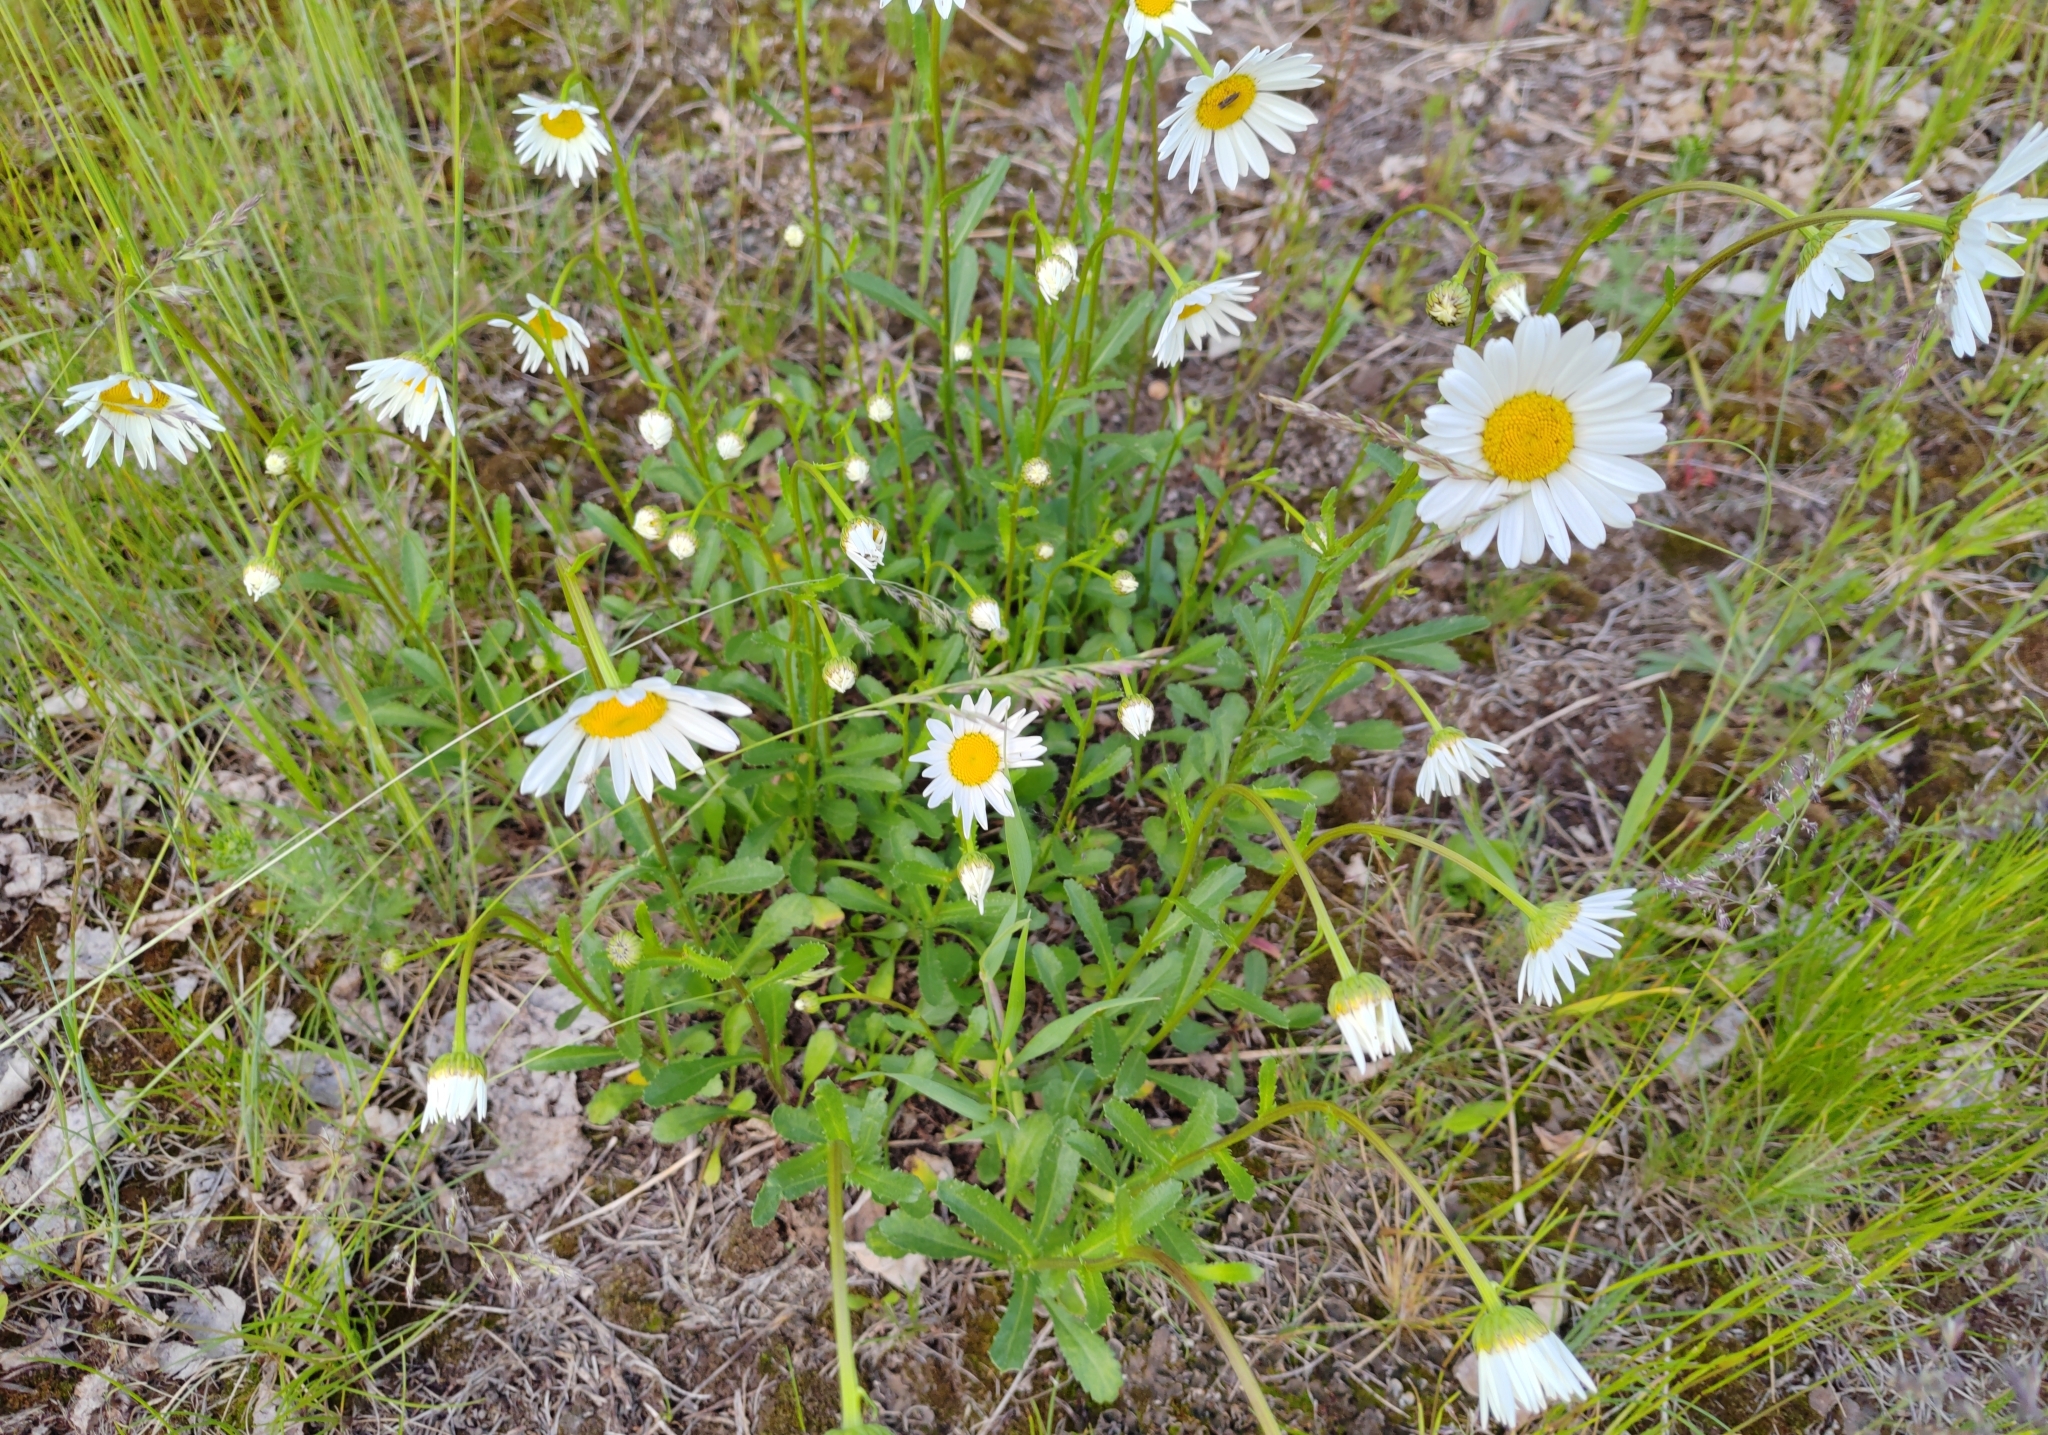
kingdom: Plantae
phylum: Tracheophyta
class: Magnoliopsida
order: Asterales
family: Asteraceae
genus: Leucanthemum
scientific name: Leucanthemum ircutianum
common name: Daisy
